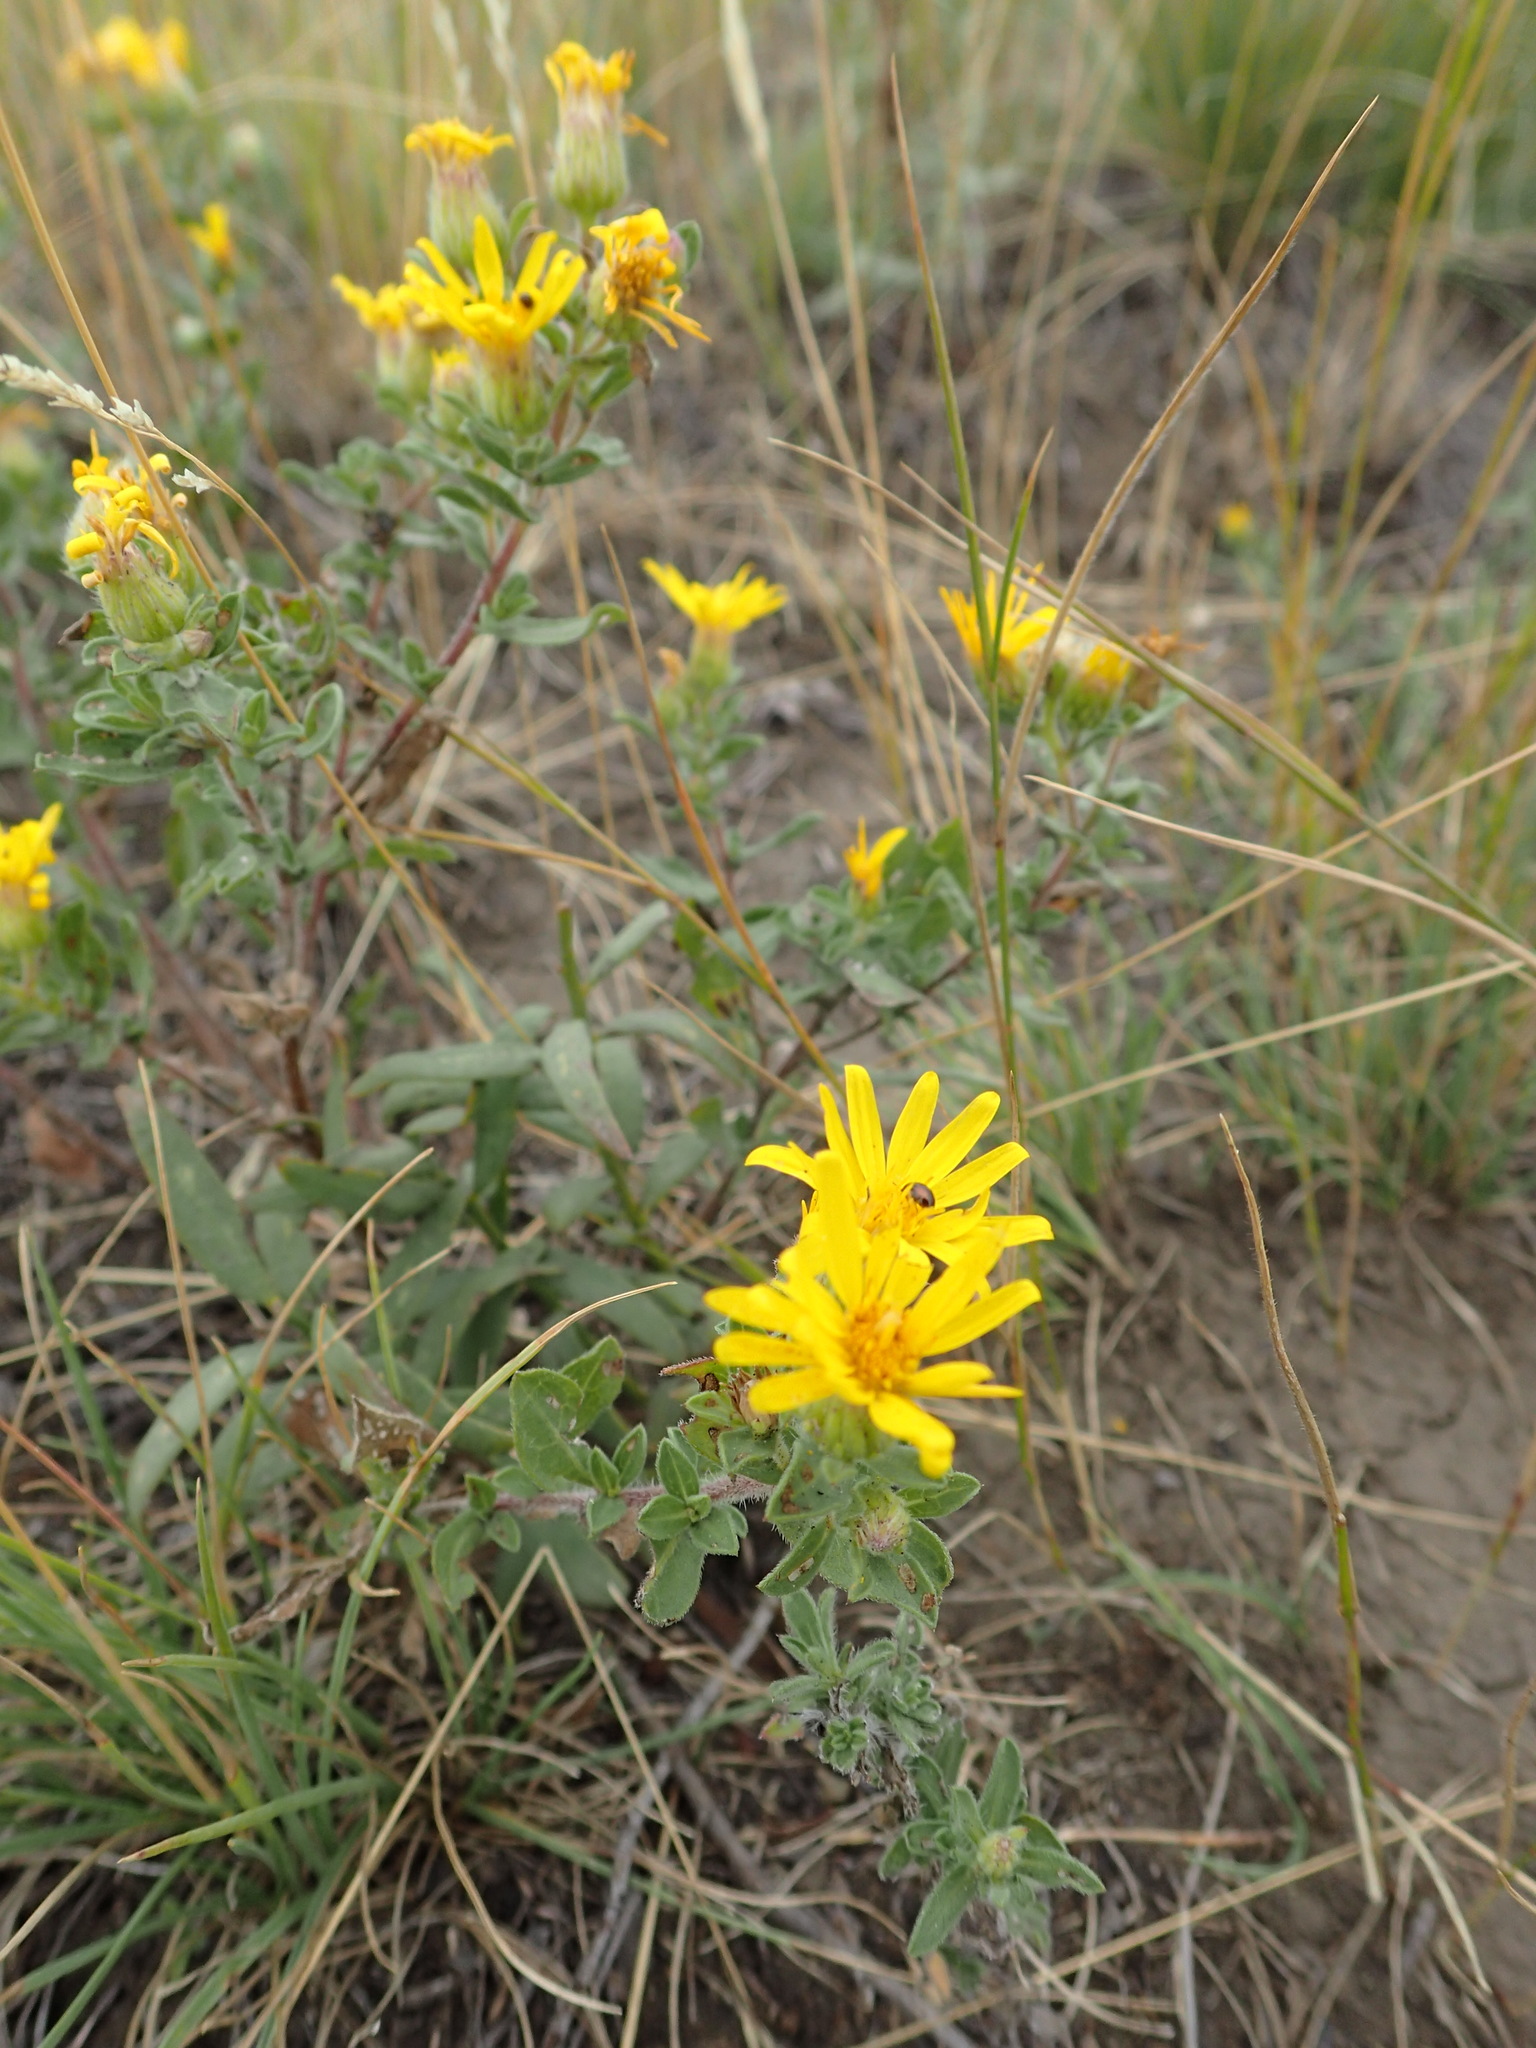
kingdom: Plantae
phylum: Tracheophyta
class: Magnoliopsida
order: Asterales
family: Asteraceae
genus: Heterotheca
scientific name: Heterotheca villosa
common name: Hairy false goldenaster
